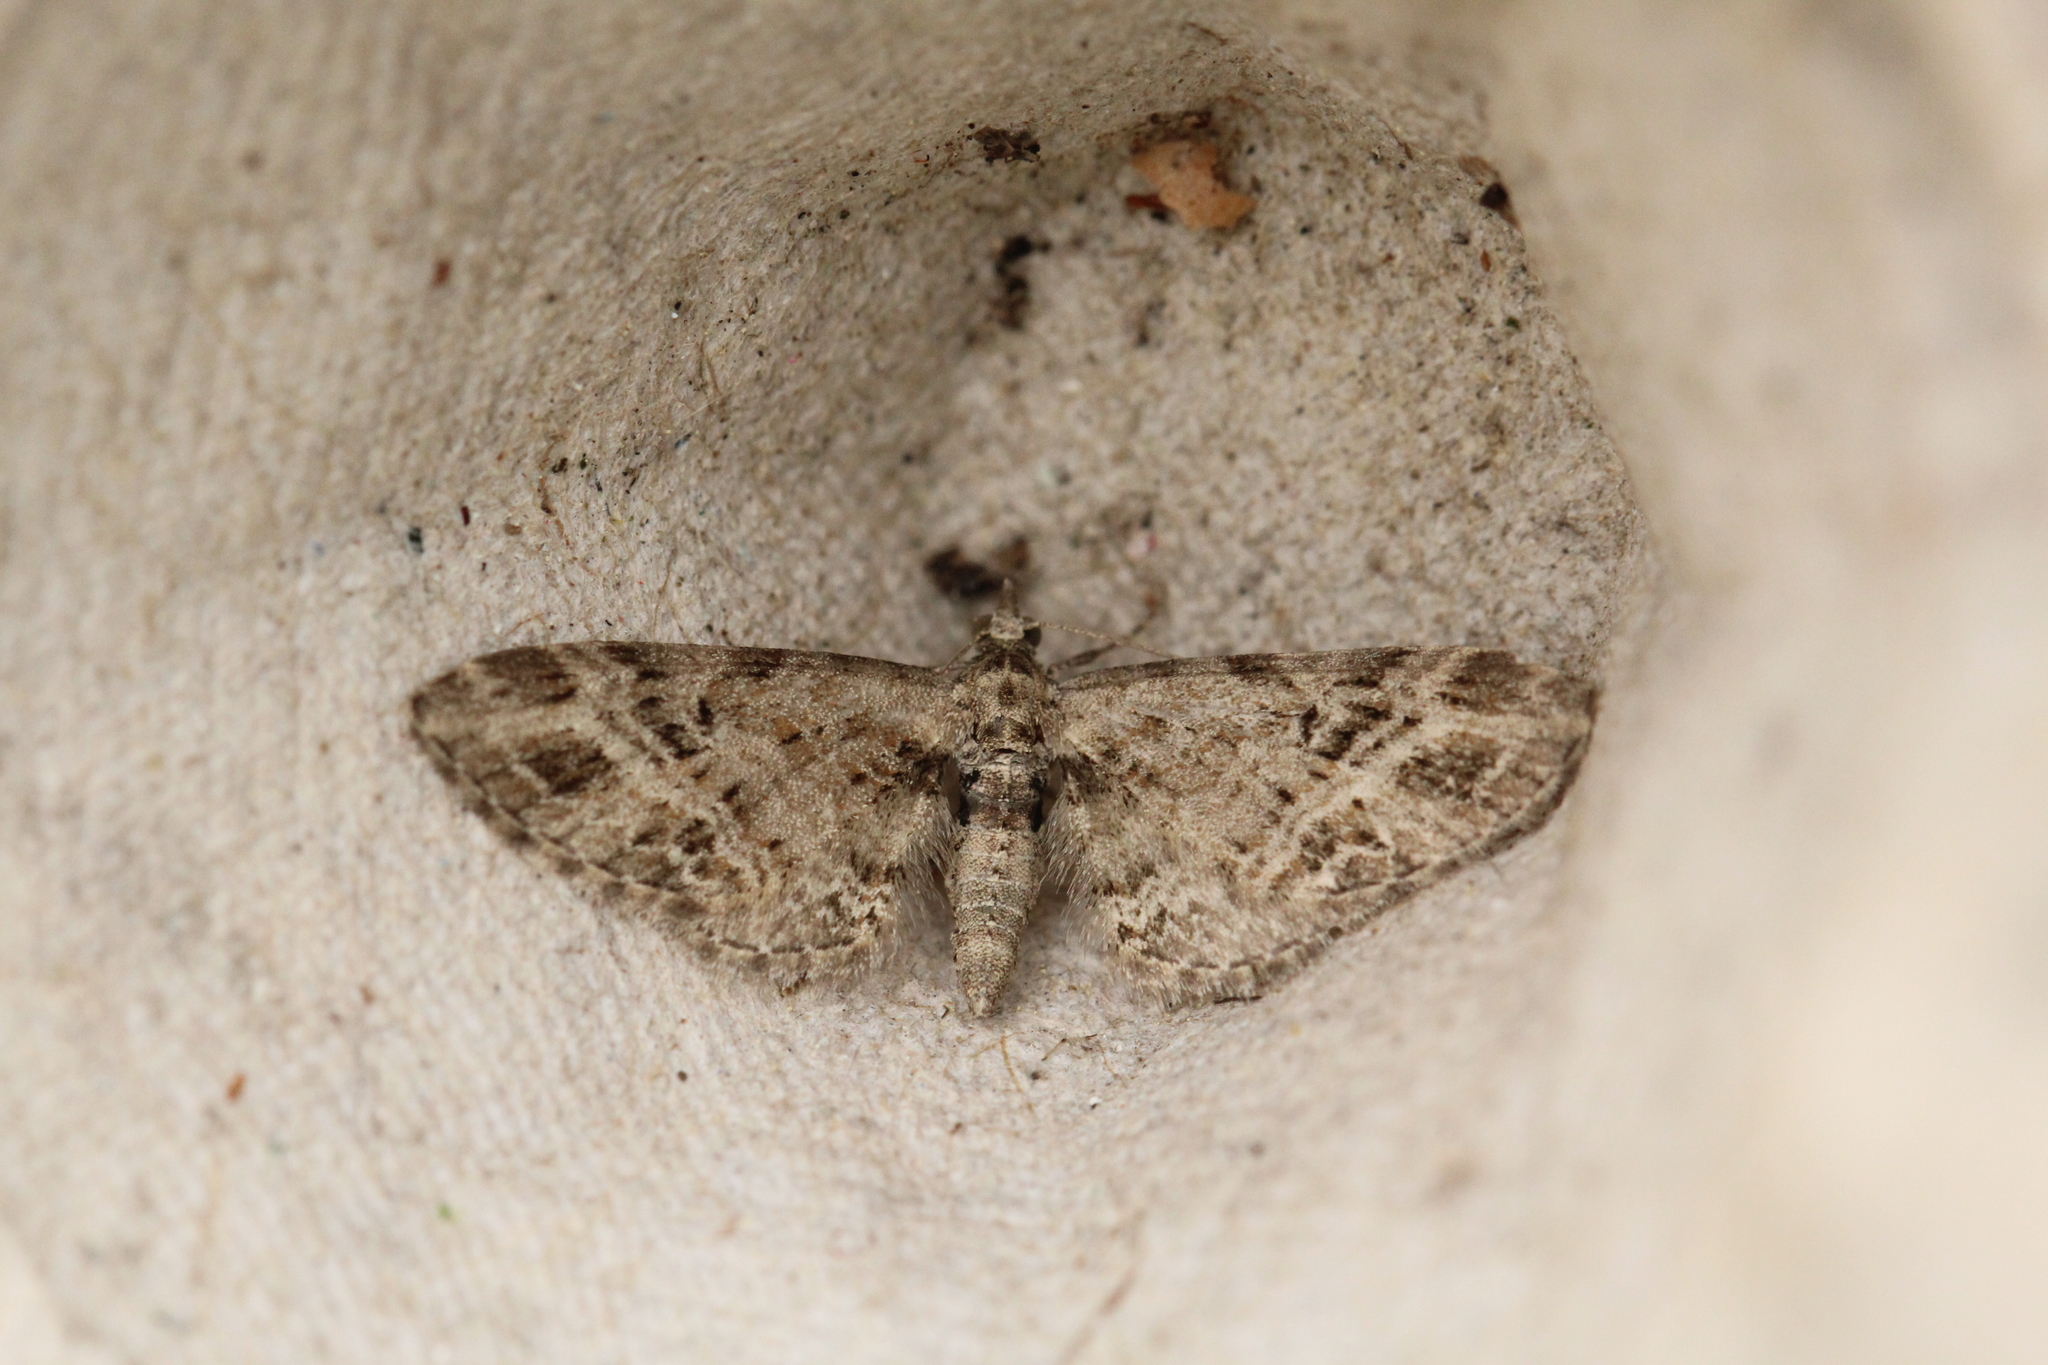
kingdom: Animalia
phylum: Arthropoda
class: Insecta
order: Lepidoptera
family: Geometridae
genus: Eupithecia
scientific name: Eupithecia exiguata
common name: Mottled pug
